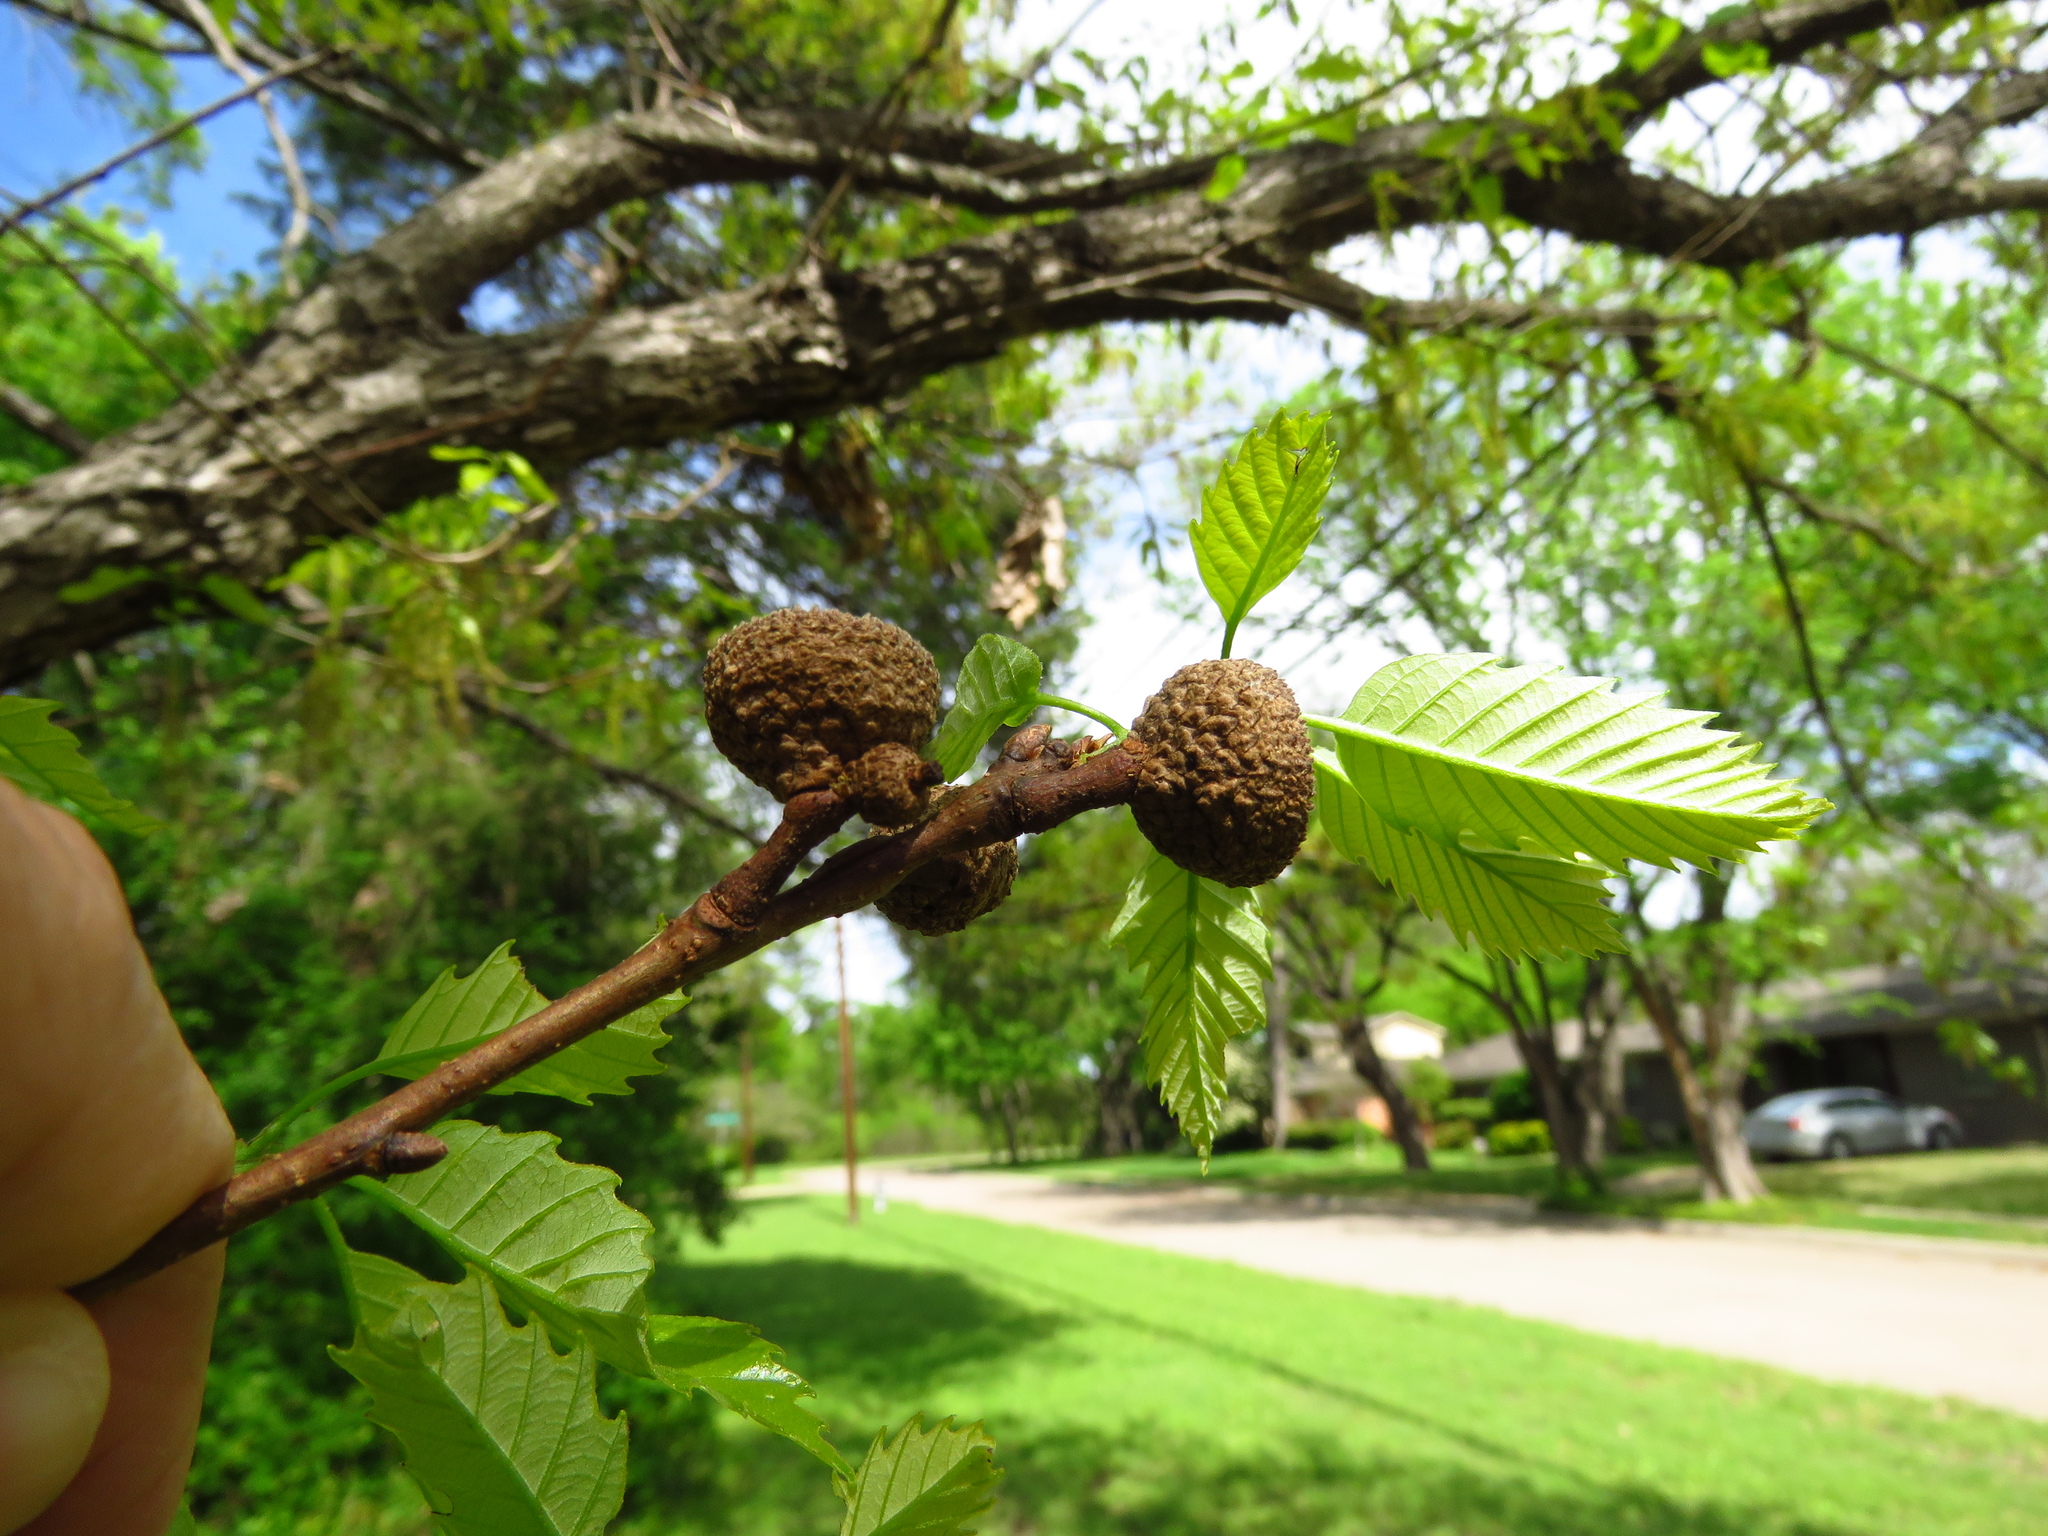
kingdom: Plantae
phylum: Tracheophyta
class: Magnoliopsida
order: Fagales
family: Fagaceae
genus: Quercus
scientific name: Quercus muehlenbergii
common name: Chinkapin oak
